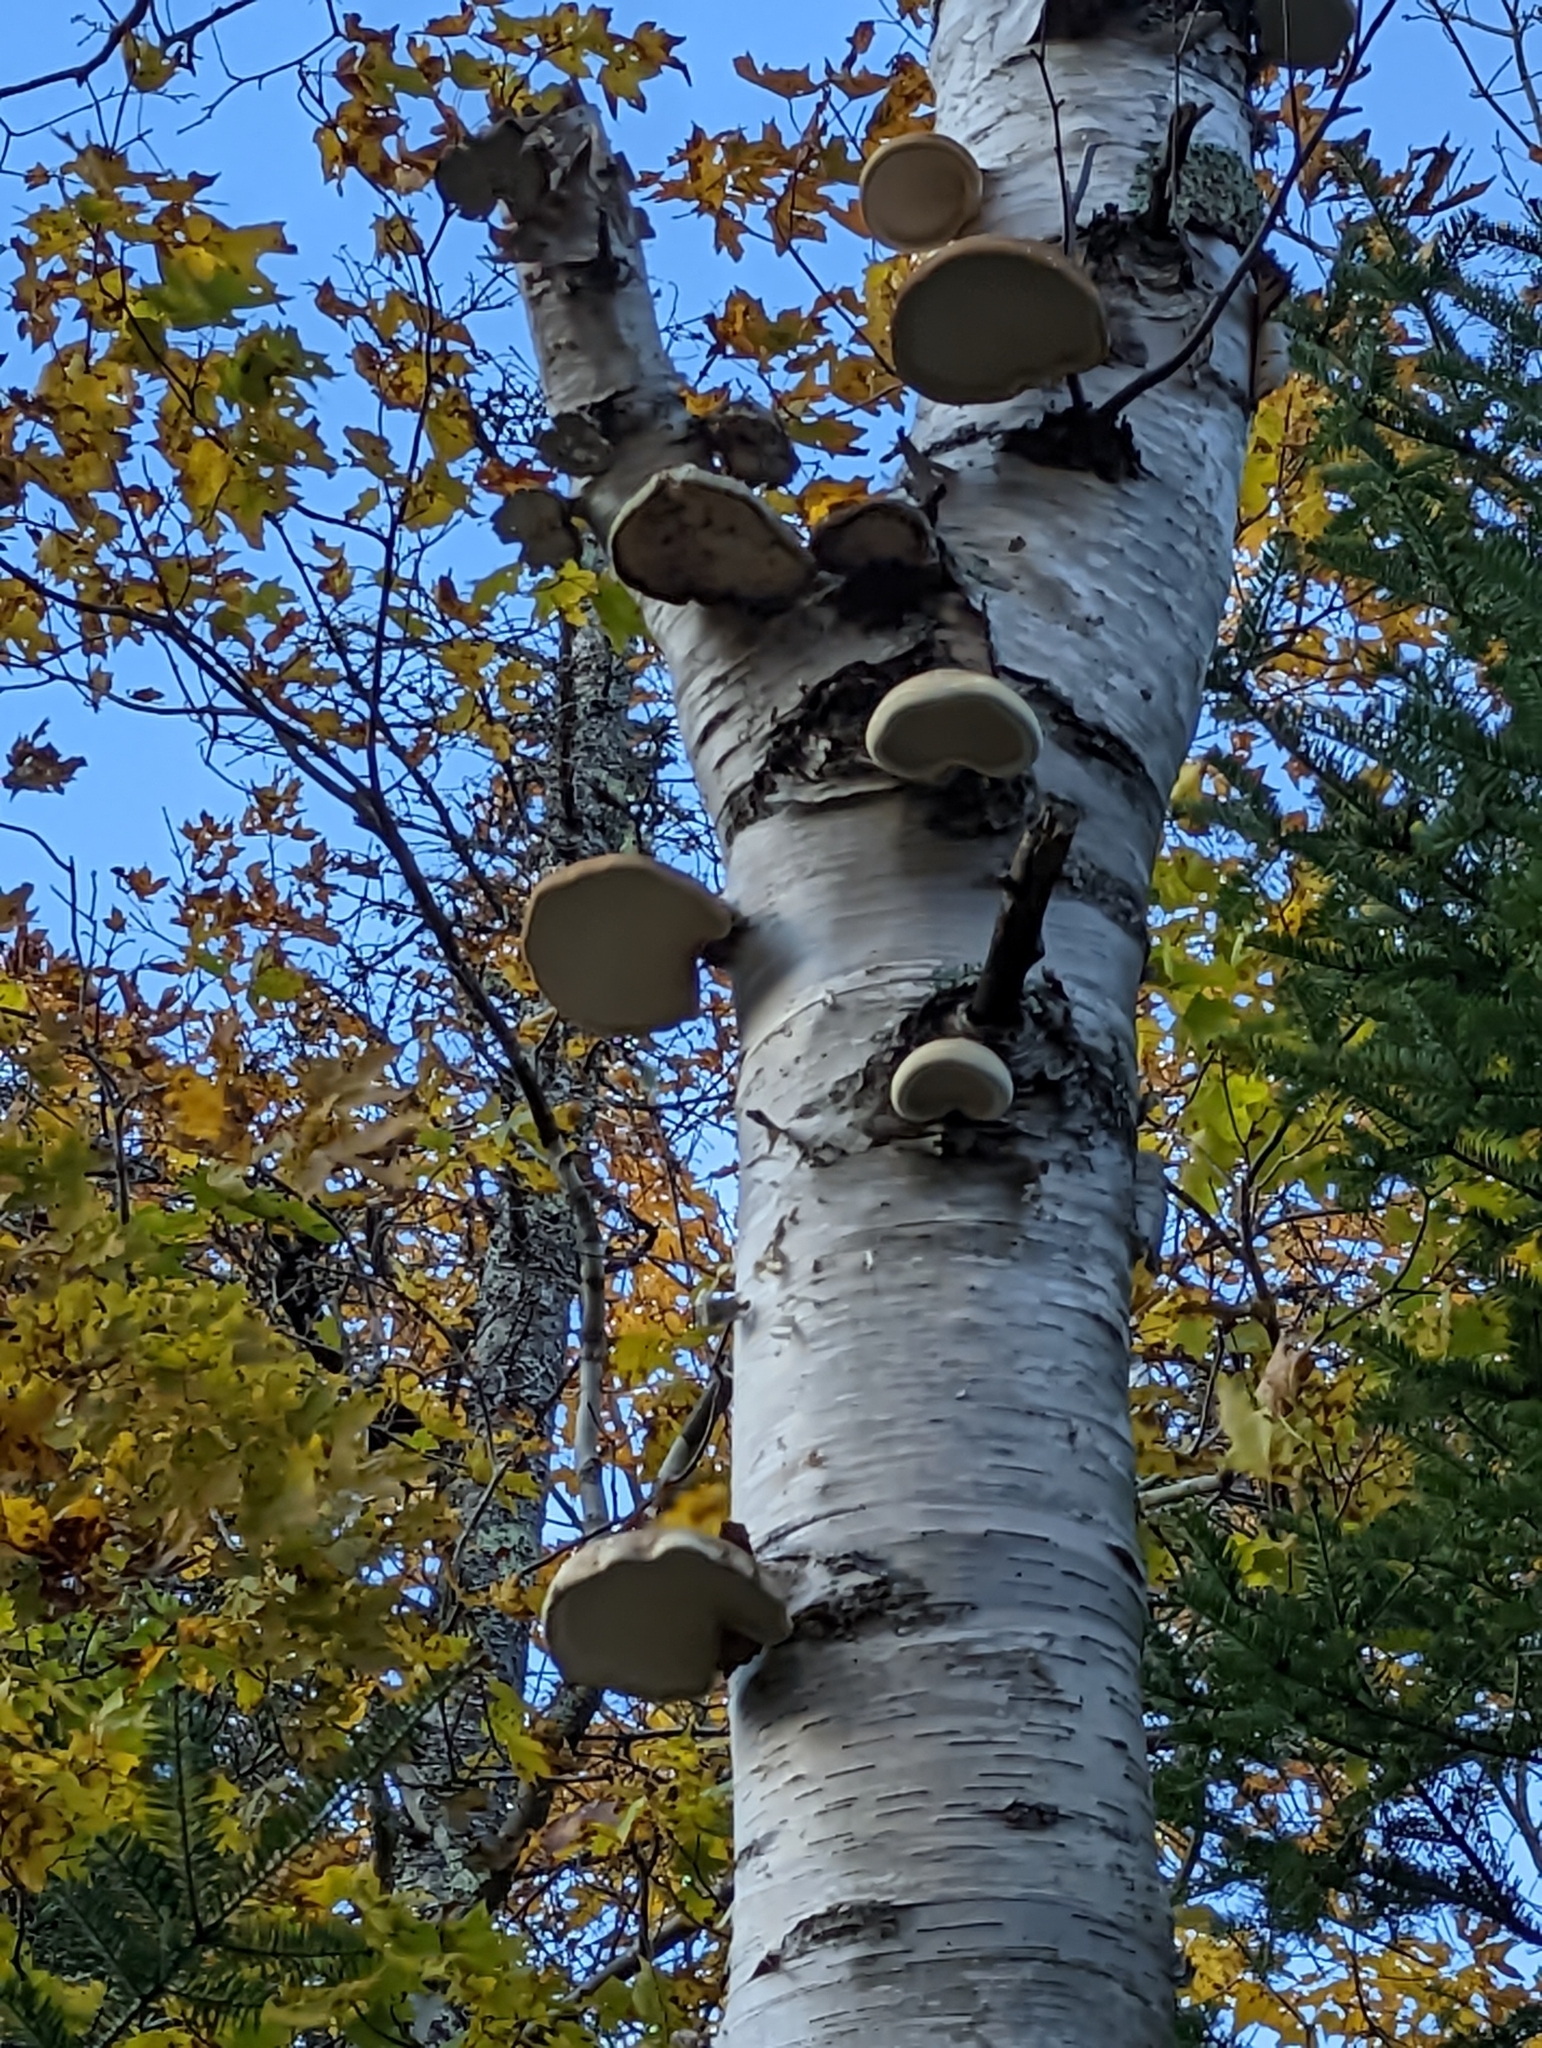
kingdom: Fungi
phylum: Basidiomycota
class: Agaricomycetes
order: Polyporales
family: Fomitopsidaceae
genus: Fomitopsis
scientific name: Fomitopsis betulina
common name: Birch polypore
